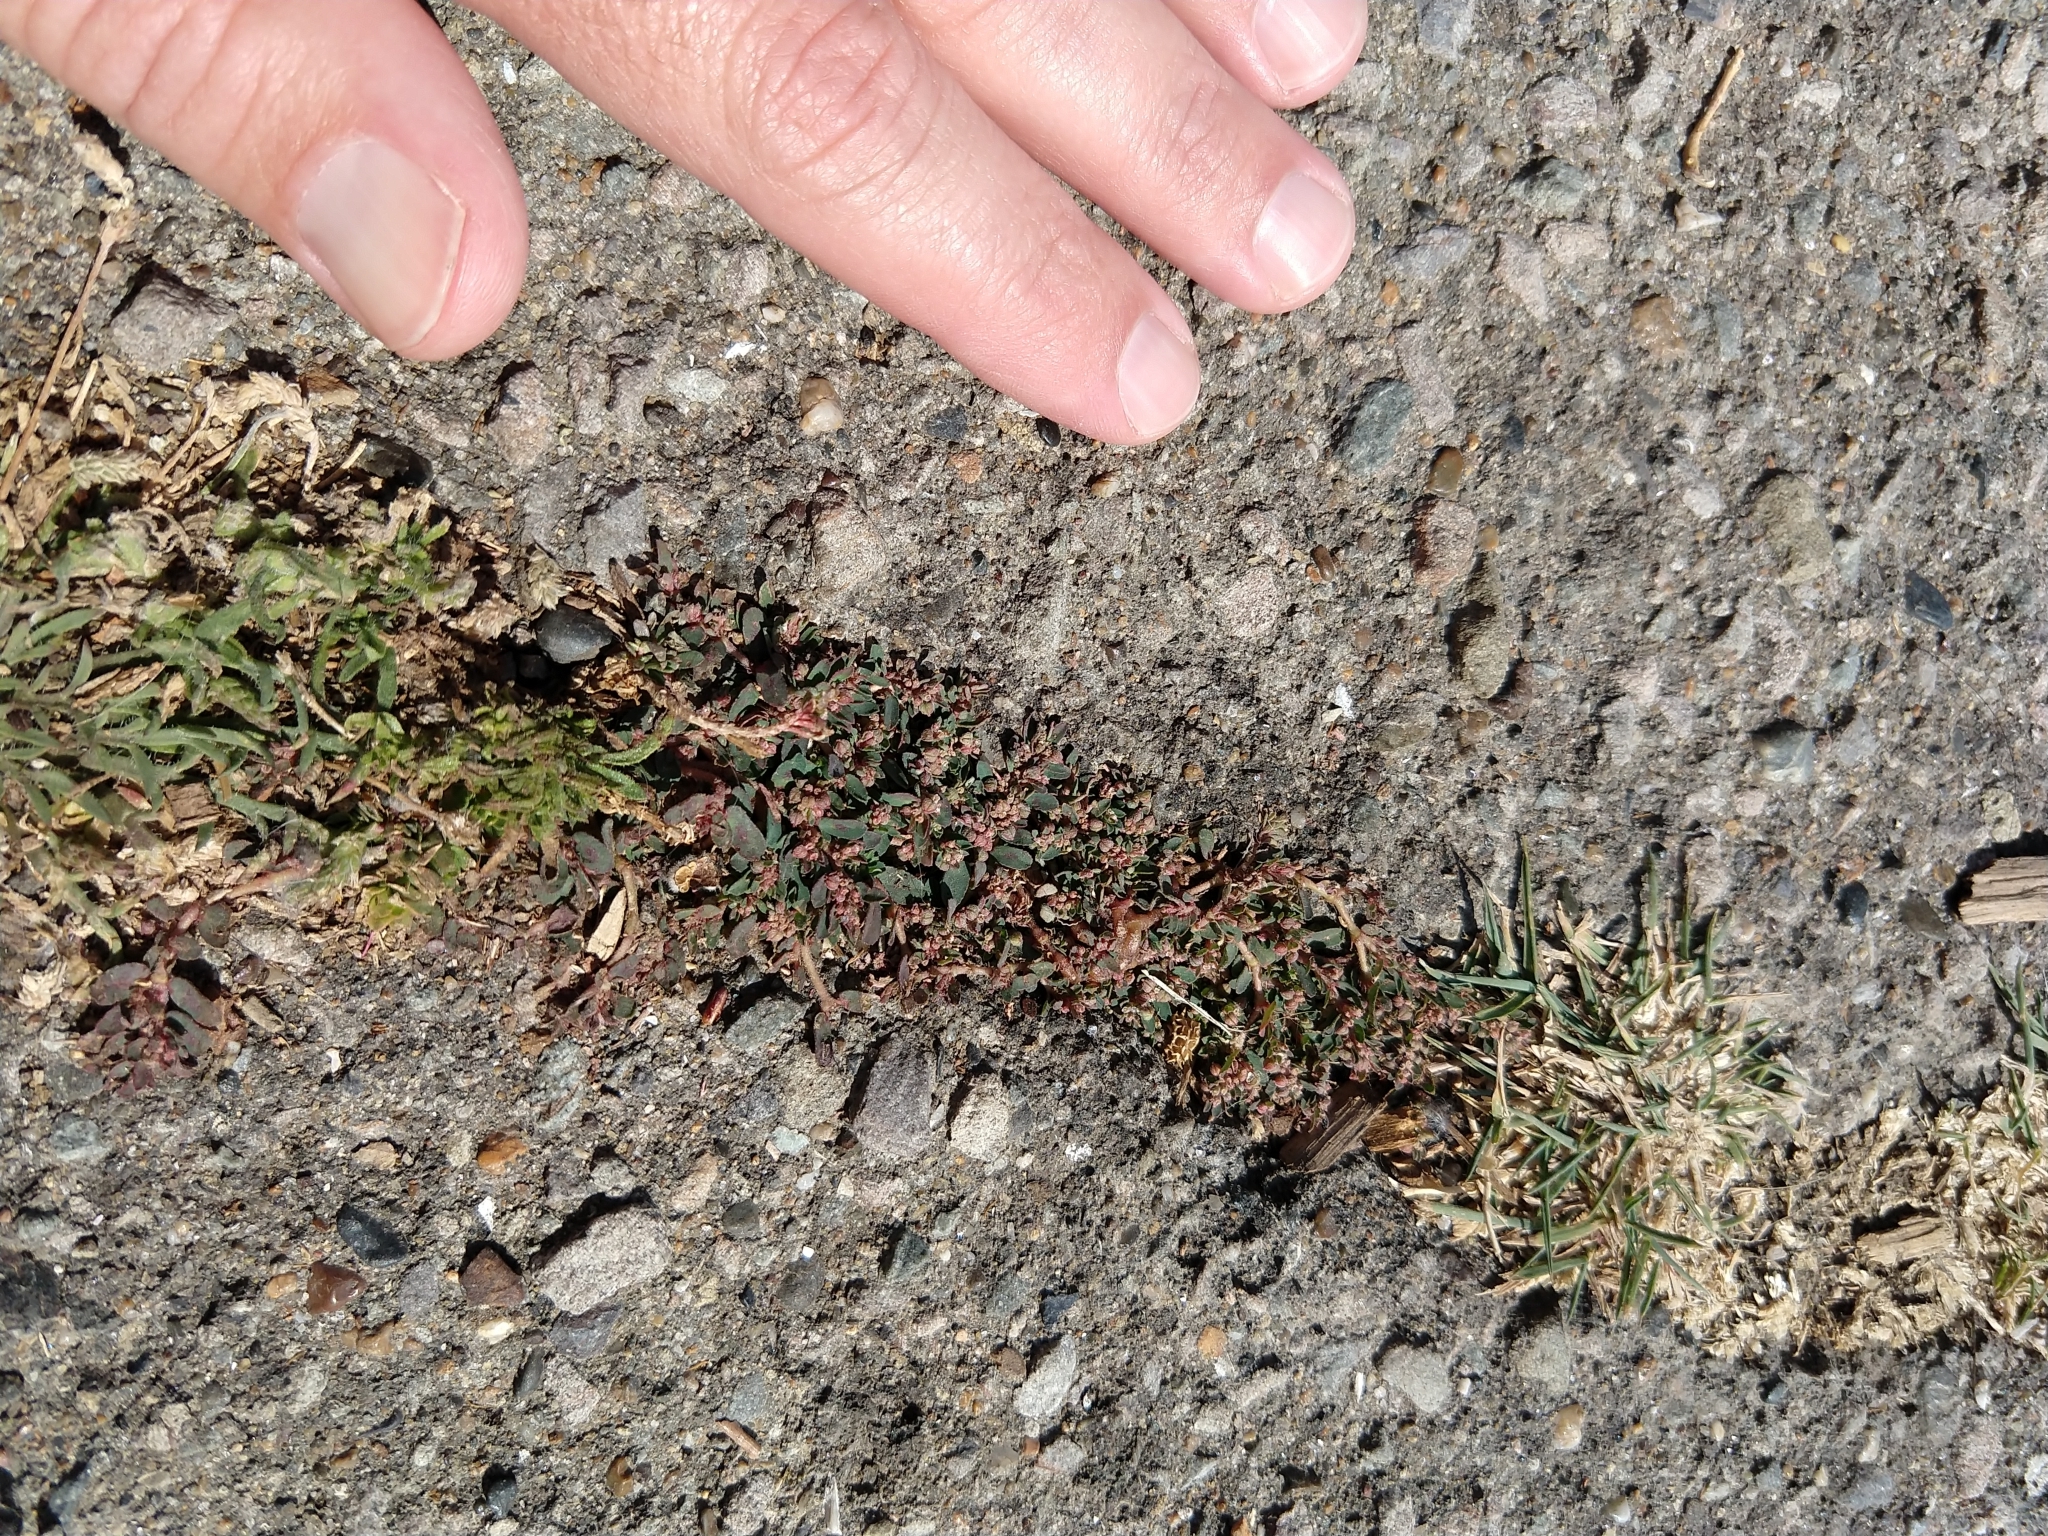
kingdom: Plantae
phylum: Tracheophyta
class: Magnoliopsida
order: Malpighiales
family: Euphorbiaceae
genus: Euphorbia
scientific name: Euphorbia maculata
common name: Spotted spurge
